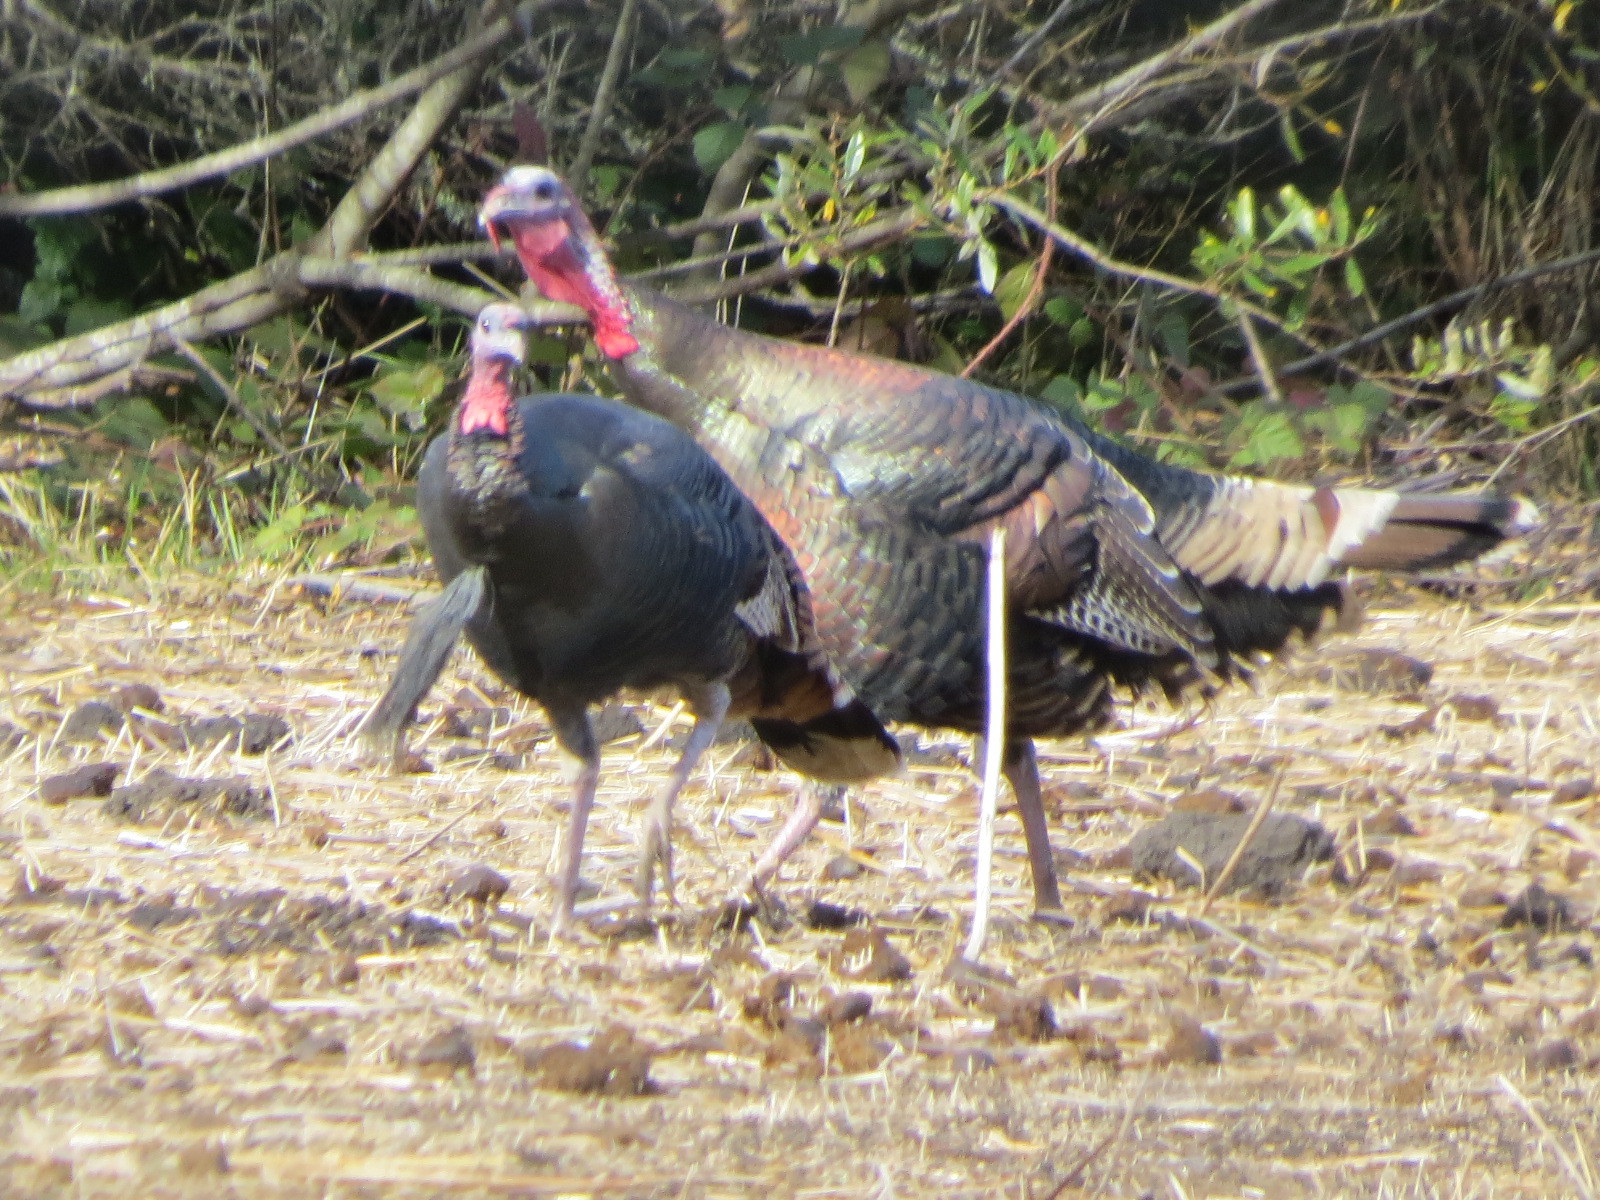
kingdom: Animalia
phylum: Chordata
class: Aves
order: Galliformes
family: Phasianidae
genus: Meleagris
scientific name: Meleagris gallopavo
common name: Wild turkey
